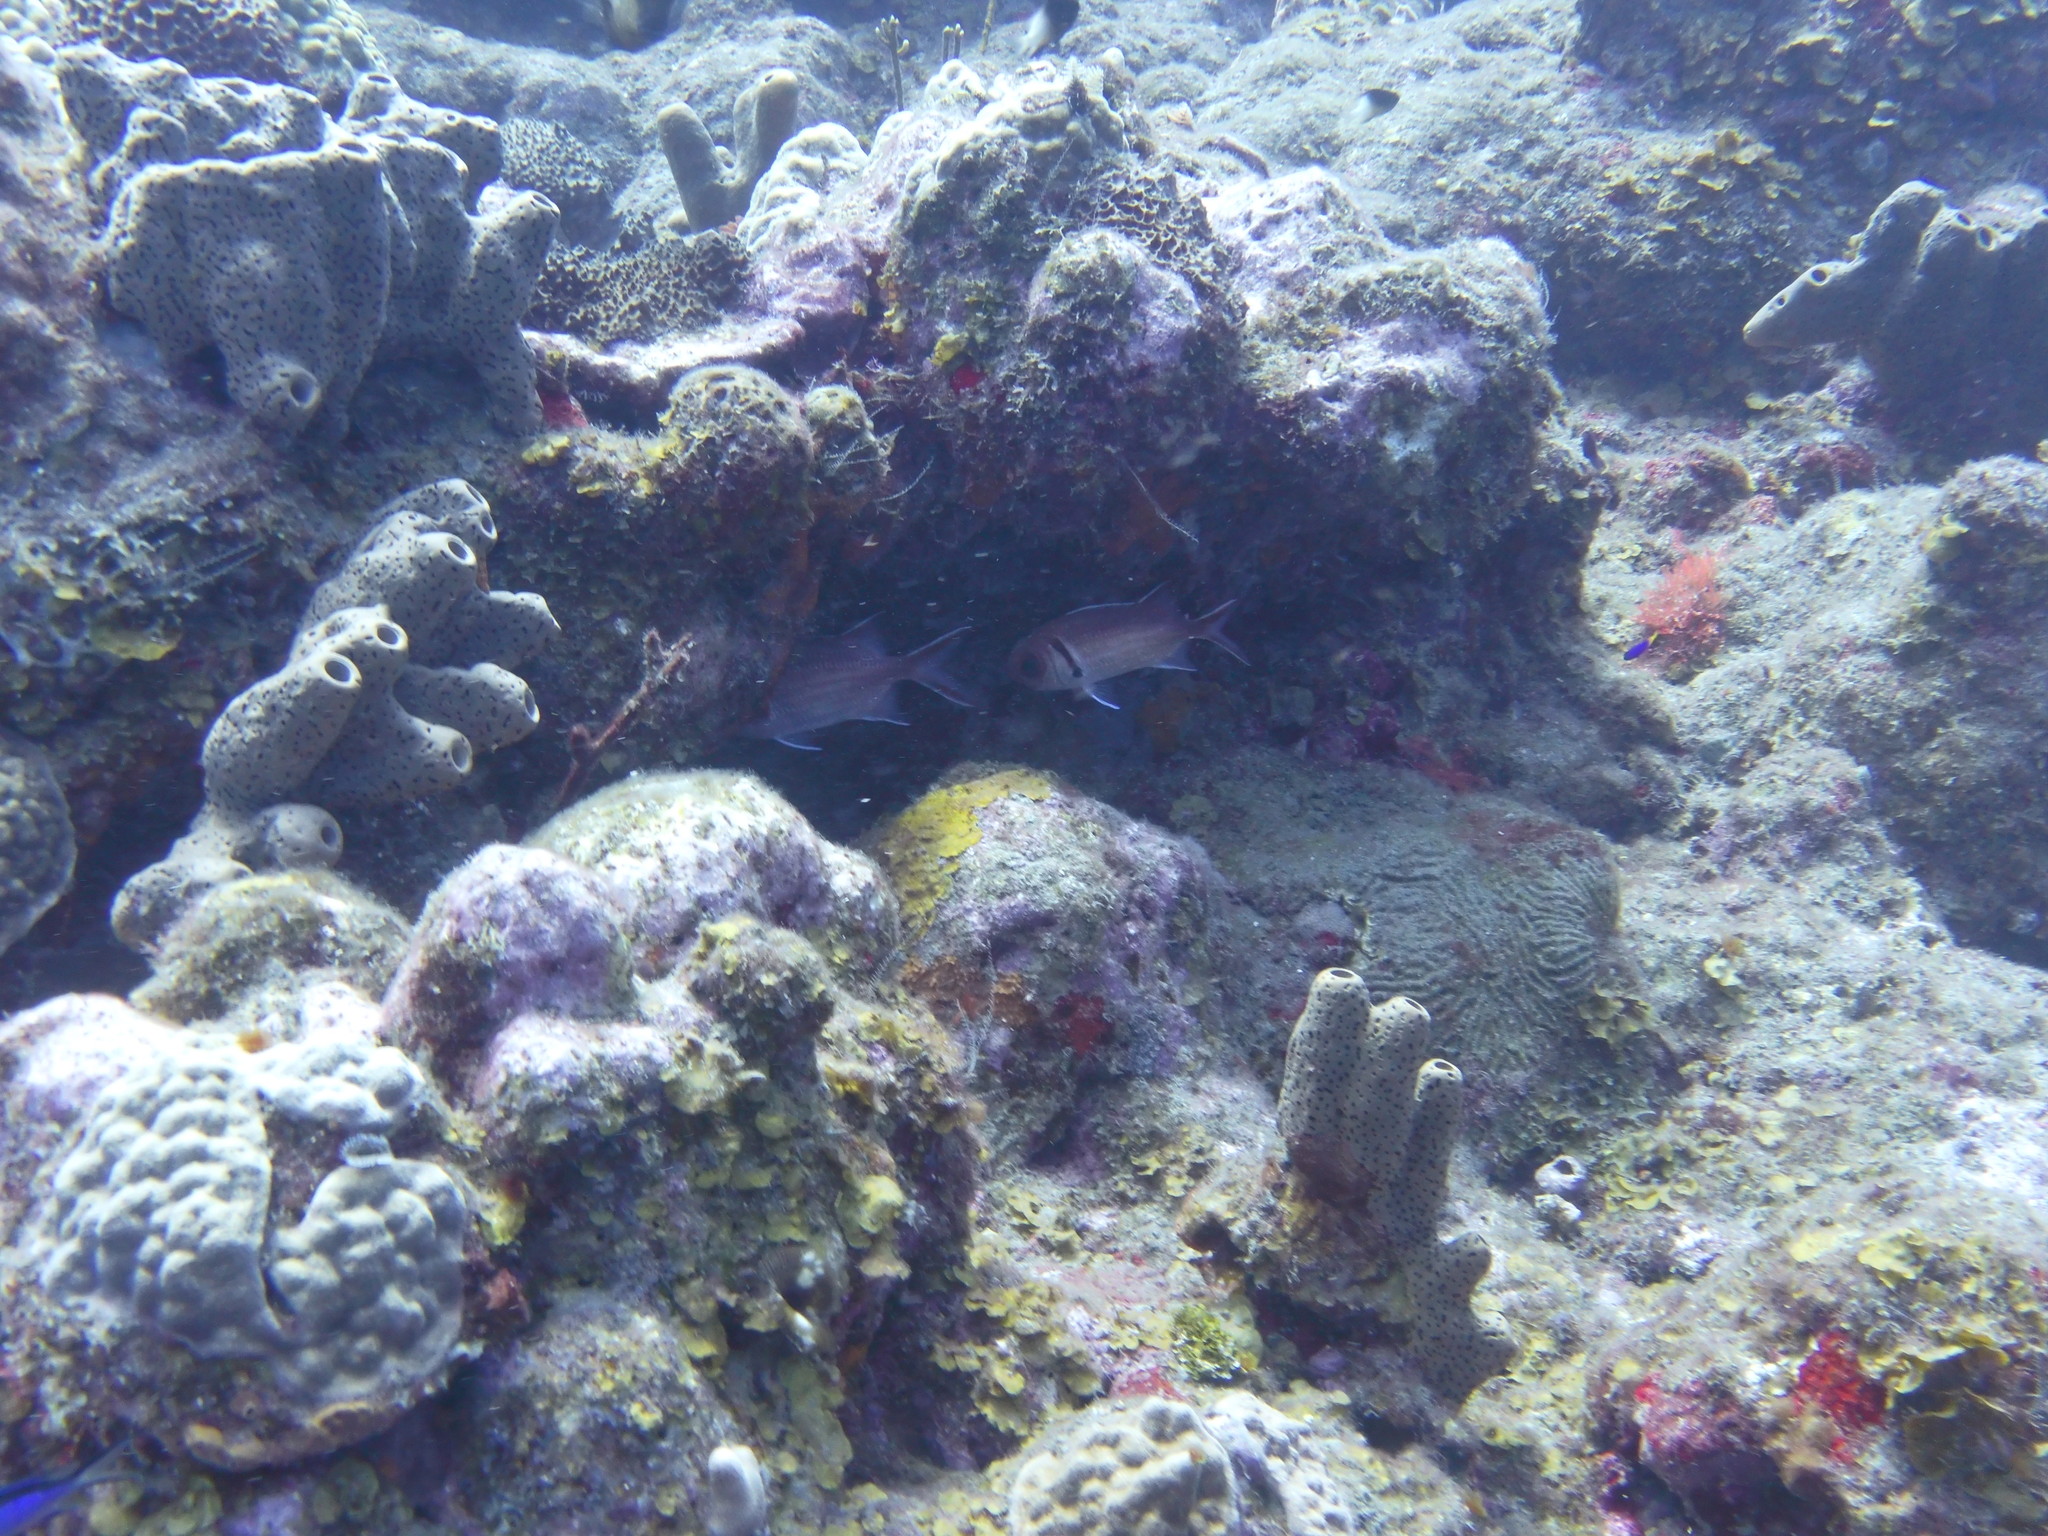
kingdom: Animalia
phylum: Chordata
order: Beryciformes
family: Holocentridae
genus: Myripristis
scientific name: Myripristis jacobus
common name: Blackbar soldierfish
